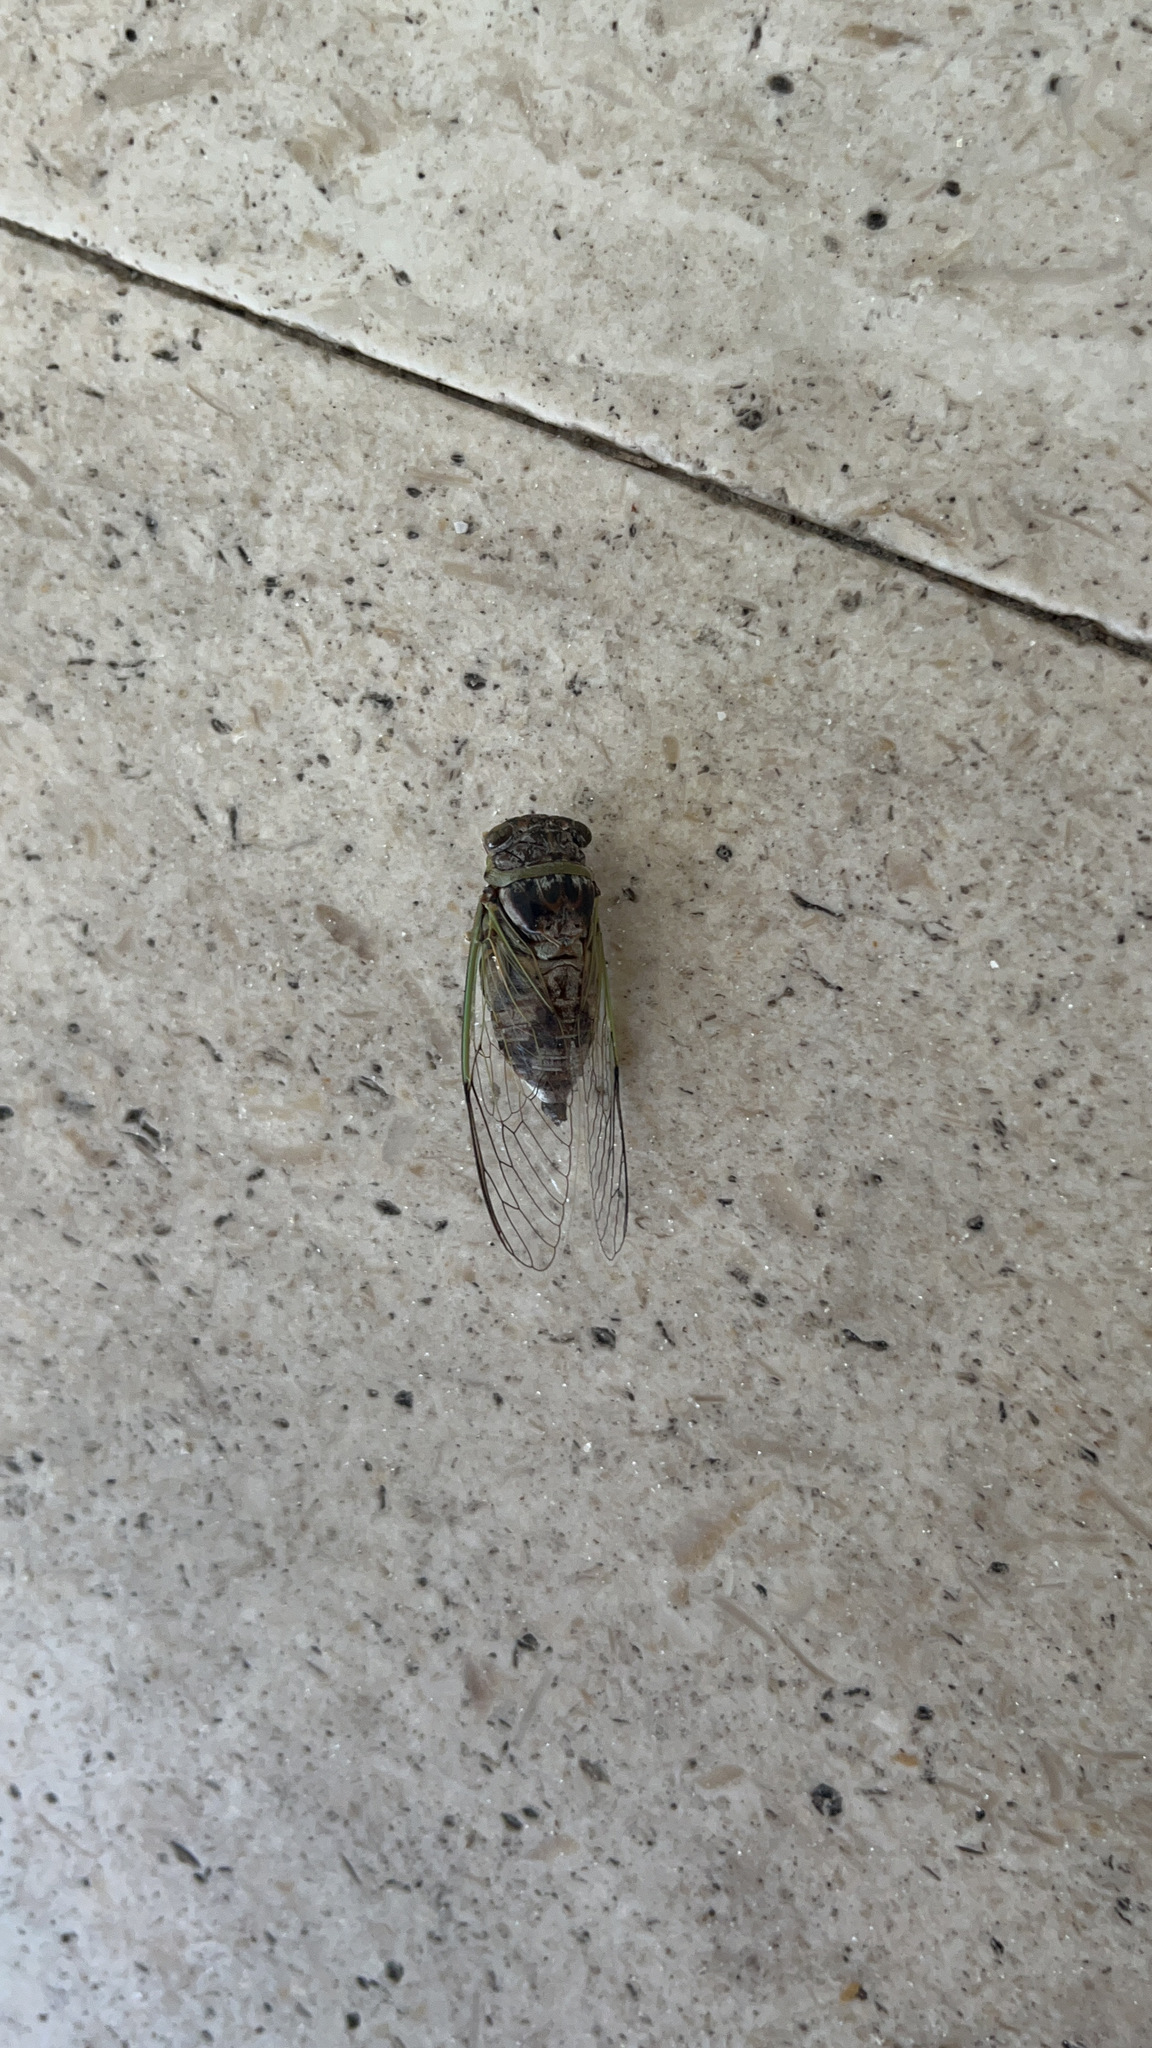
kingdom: Animalia
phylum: Arthropoda
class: Insecta
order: Hemiptera
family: Cicadidae
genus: Diceroprocta
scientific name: Diceroprocta viridifascia
